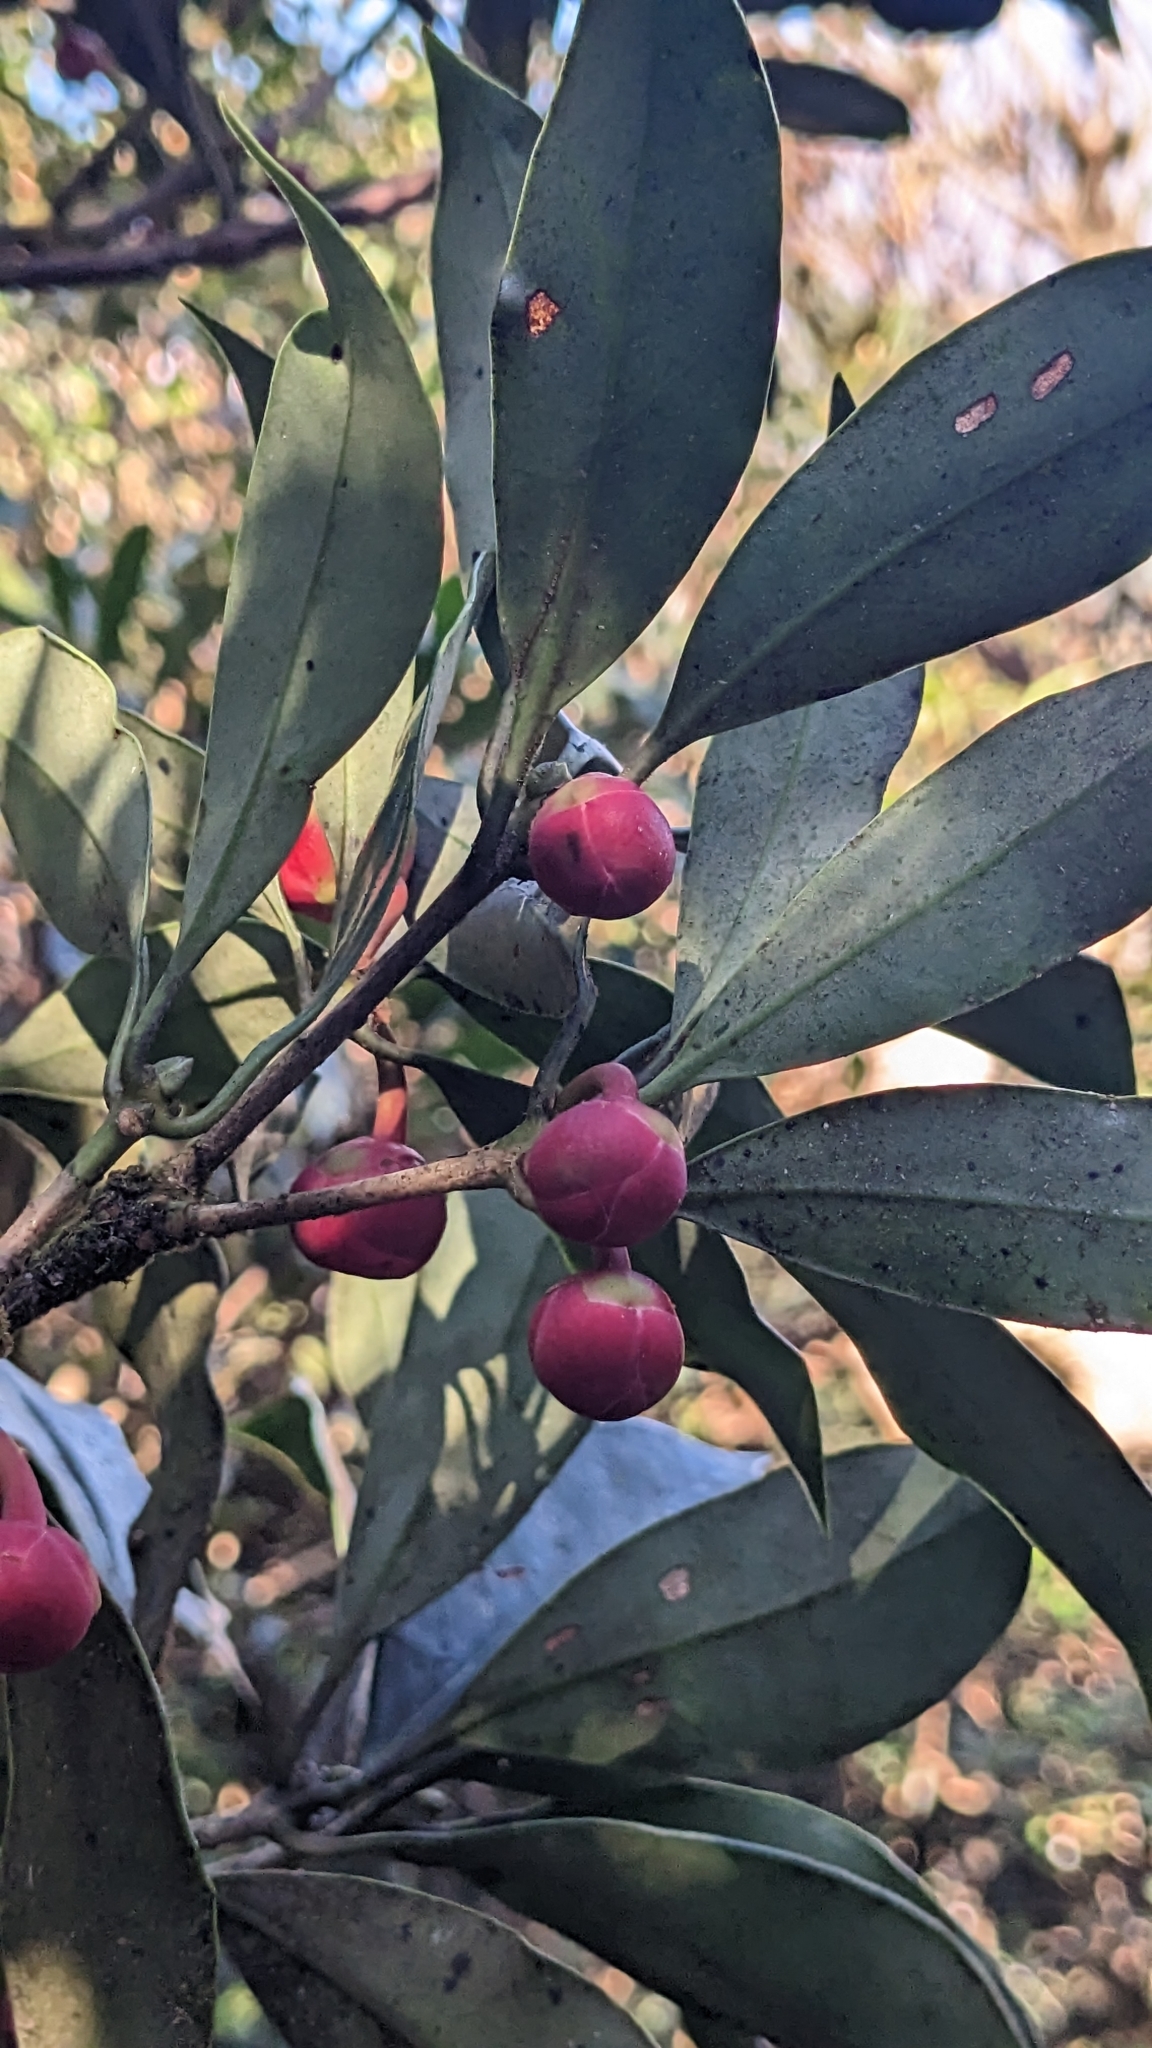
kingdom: Plantae
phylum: Tracheophyta
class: Magnoliopsida
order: Austrobaileyales
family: Schisandraceae
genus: Illicium
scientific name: Illicium arborescens
